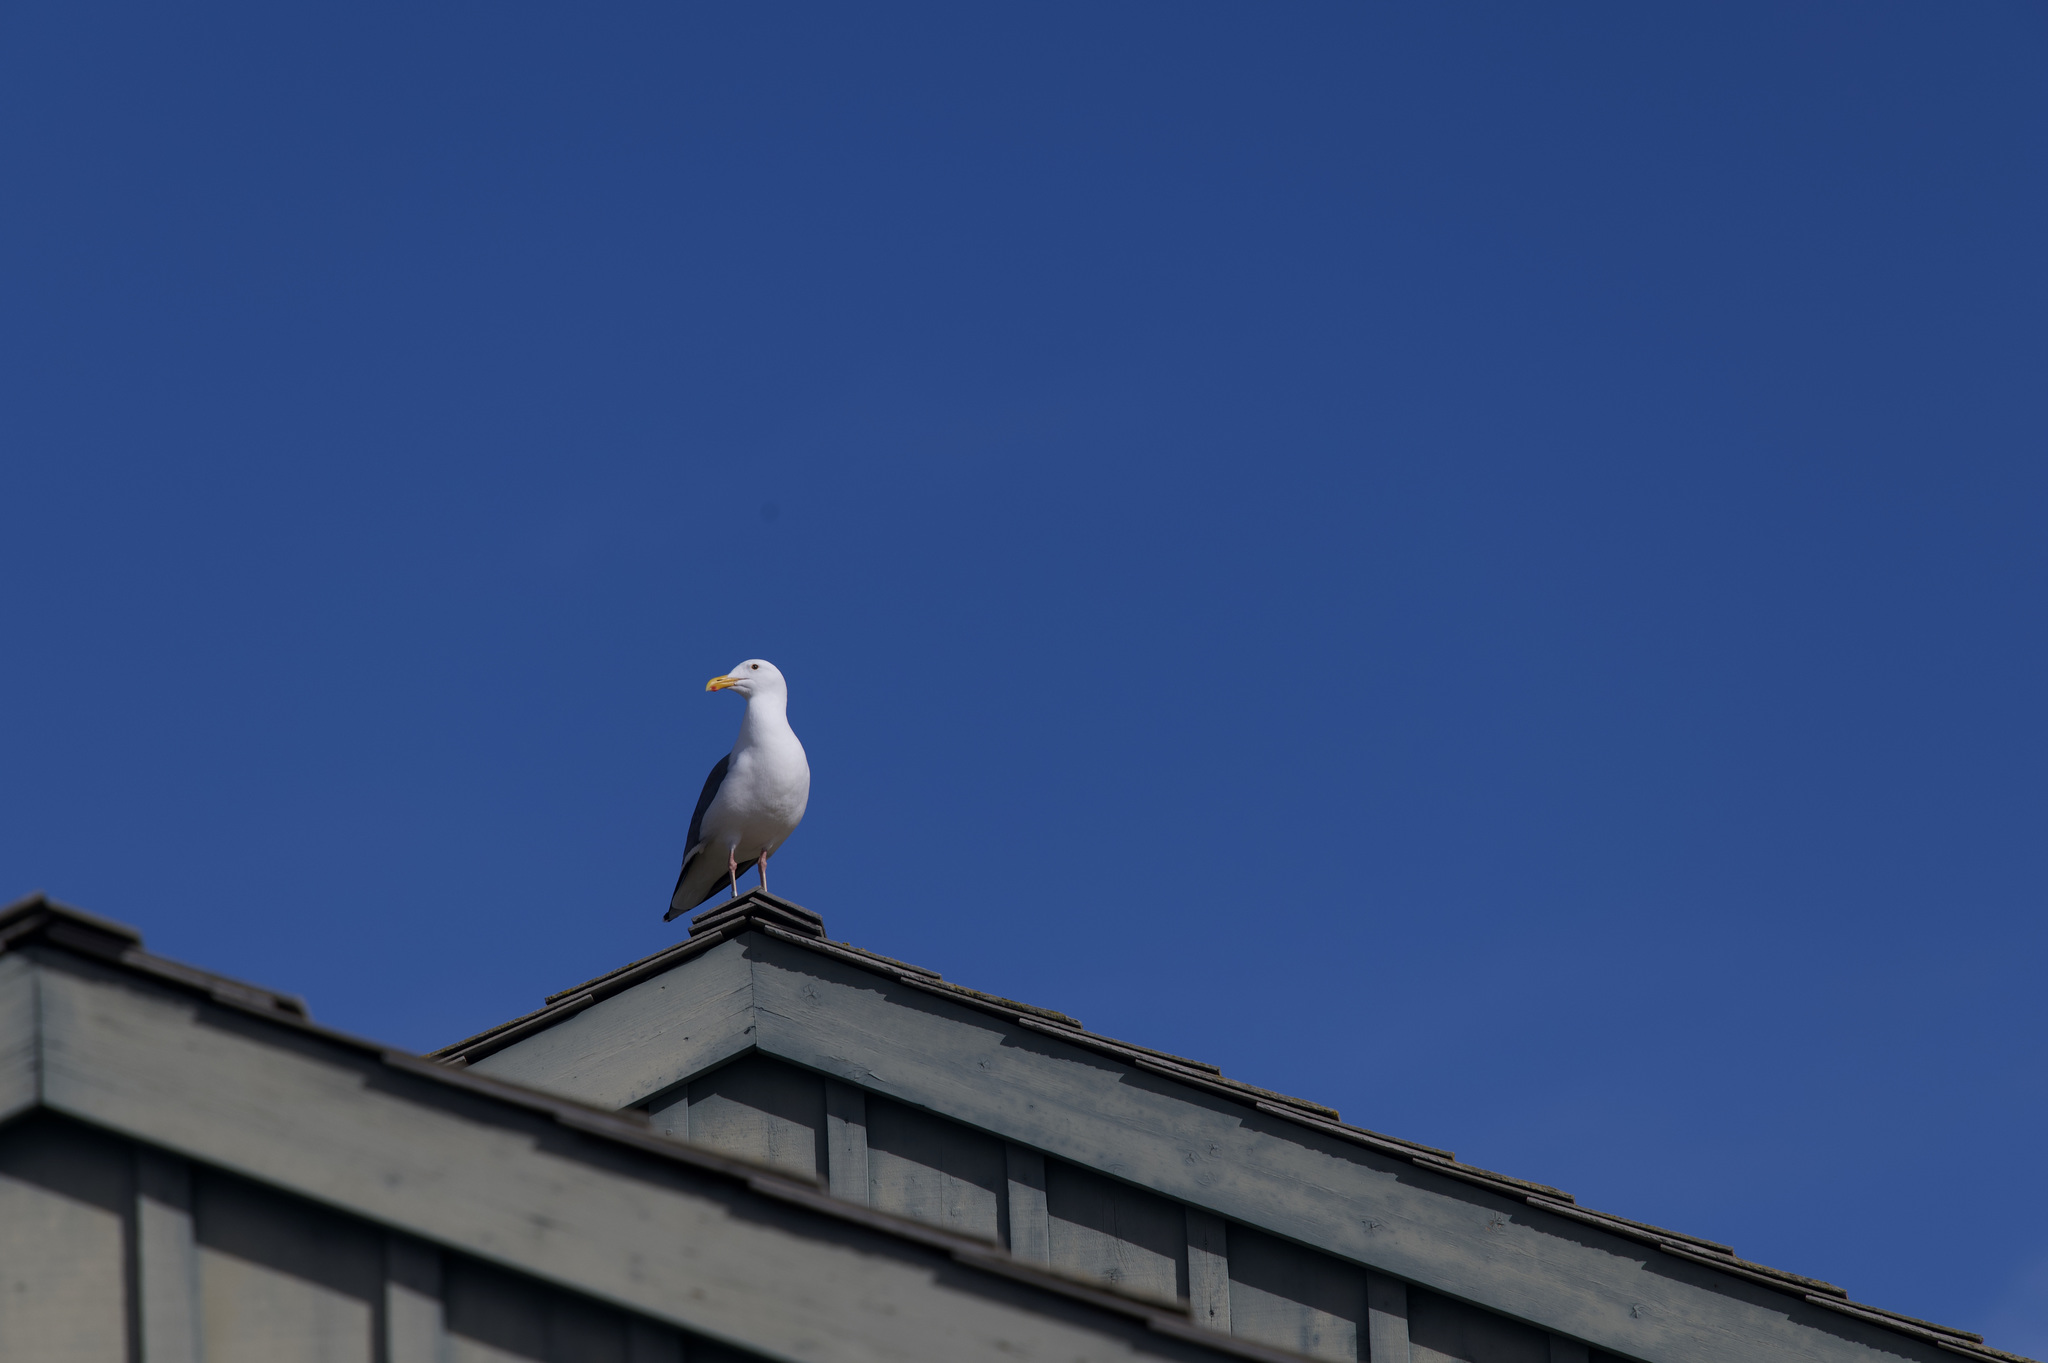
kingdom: Animalia
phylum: Chordata
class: Aves
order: Charadriiformes
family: Laridae
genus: Larus
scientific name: Larus occidentalis
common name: Western gull
